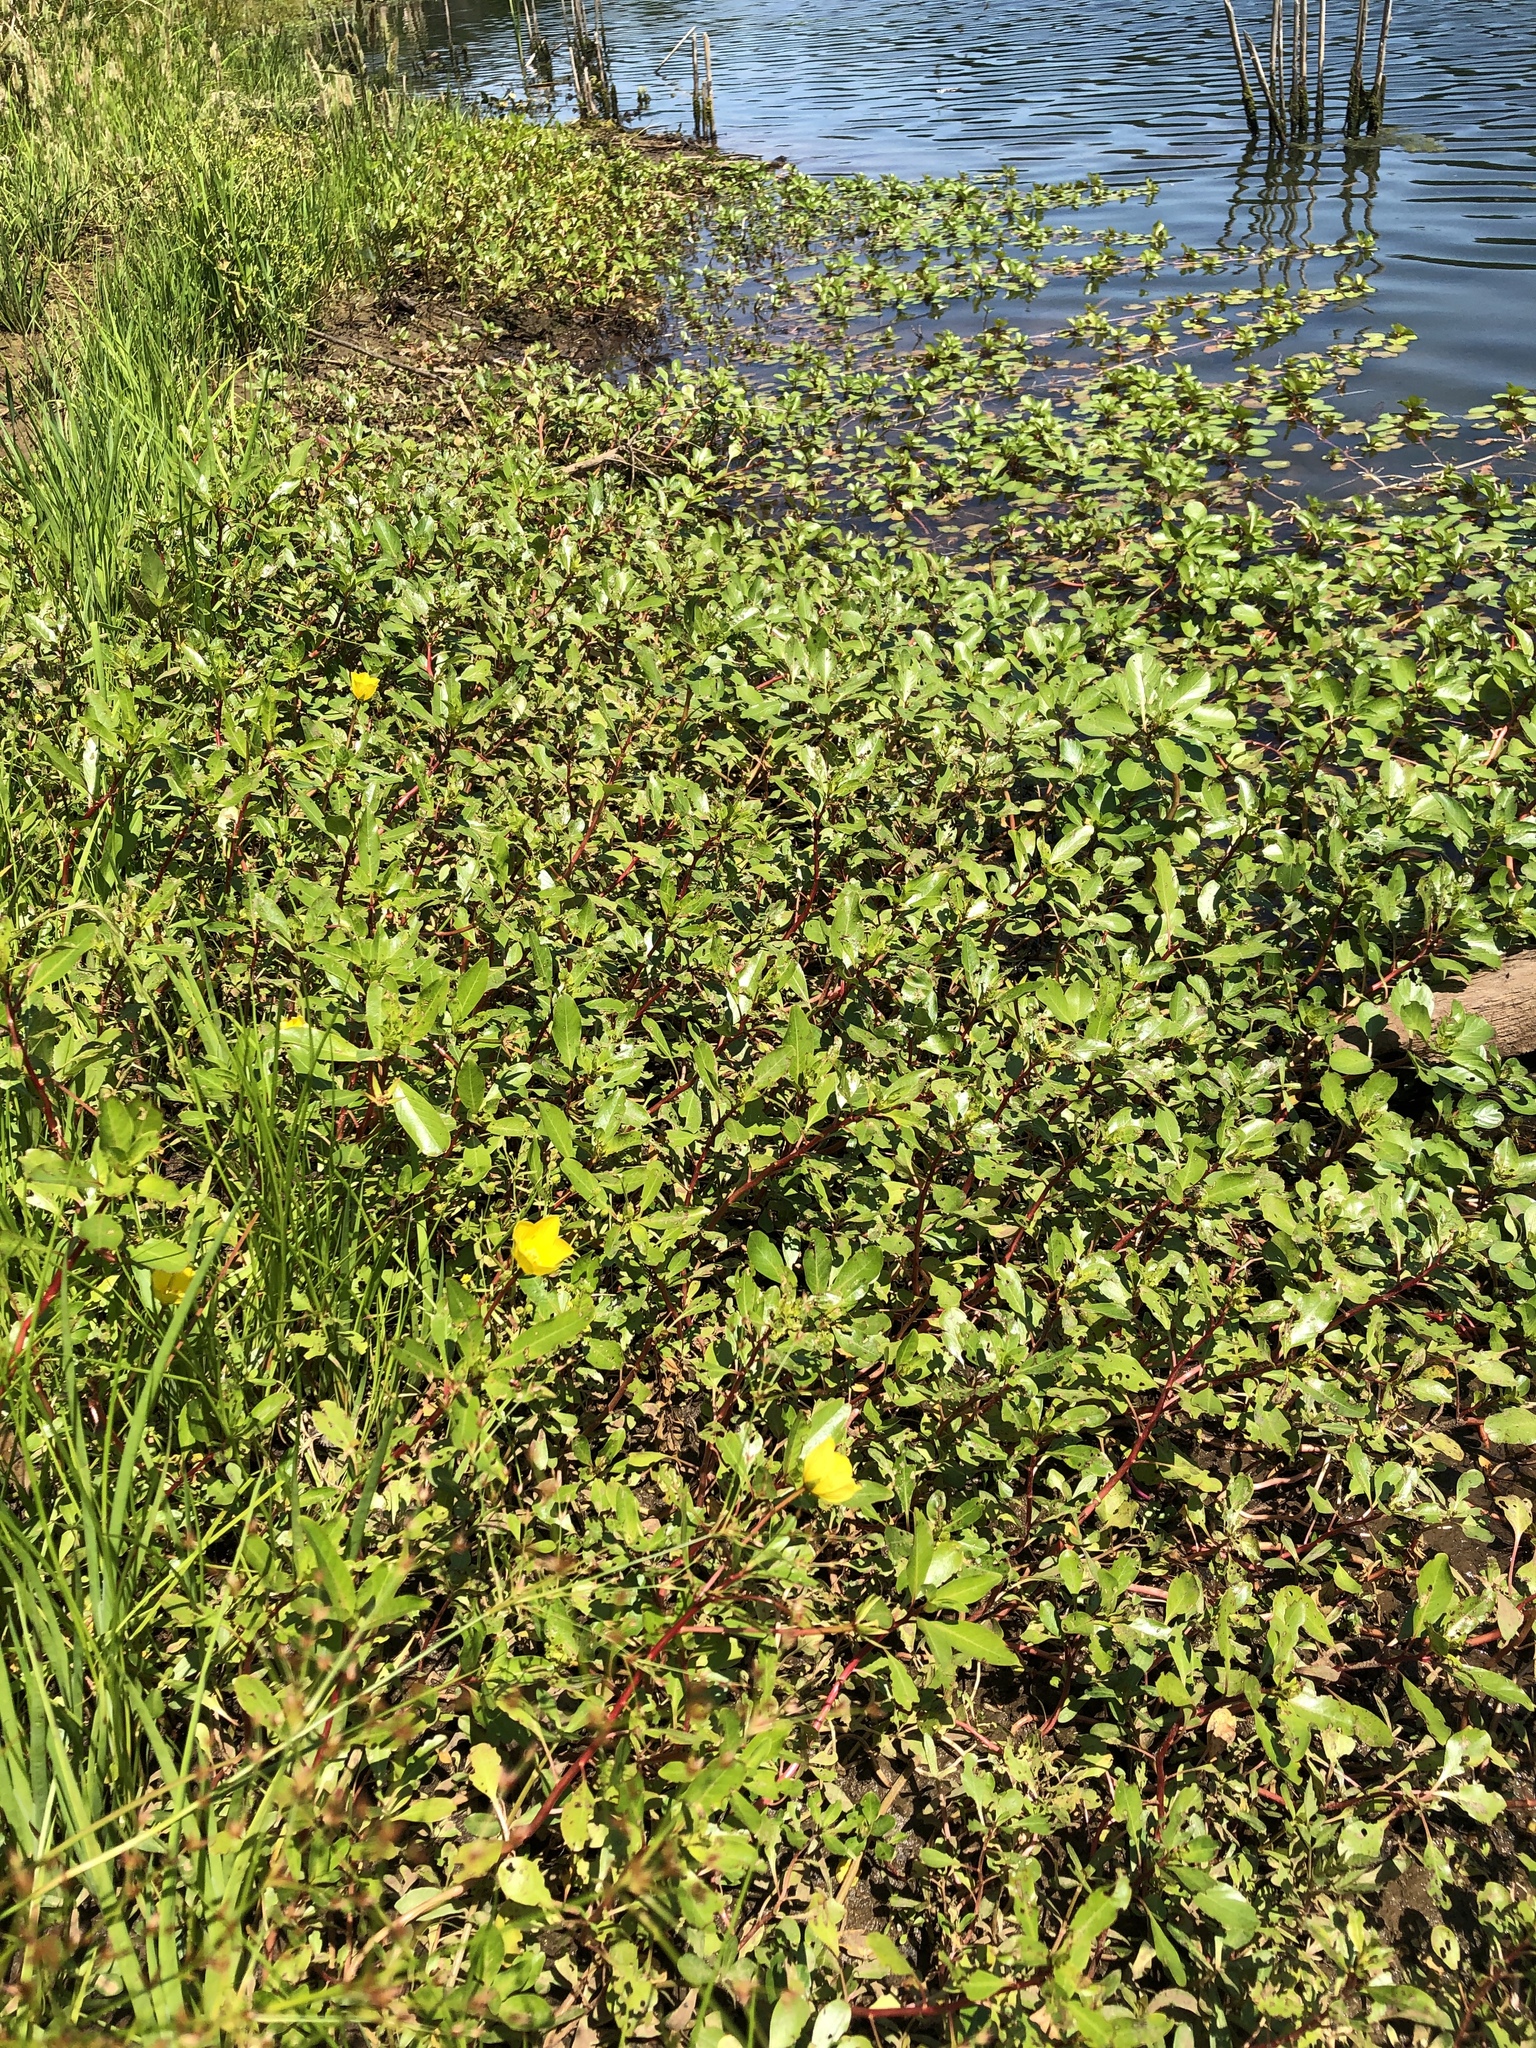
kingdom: Plantae
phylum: Tracheophyta
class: Magnoliopsida
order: Myrtales
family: Onagraceae
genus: Ludwigia
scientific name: Ludwigia peploides
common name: Floating primrose-willow
